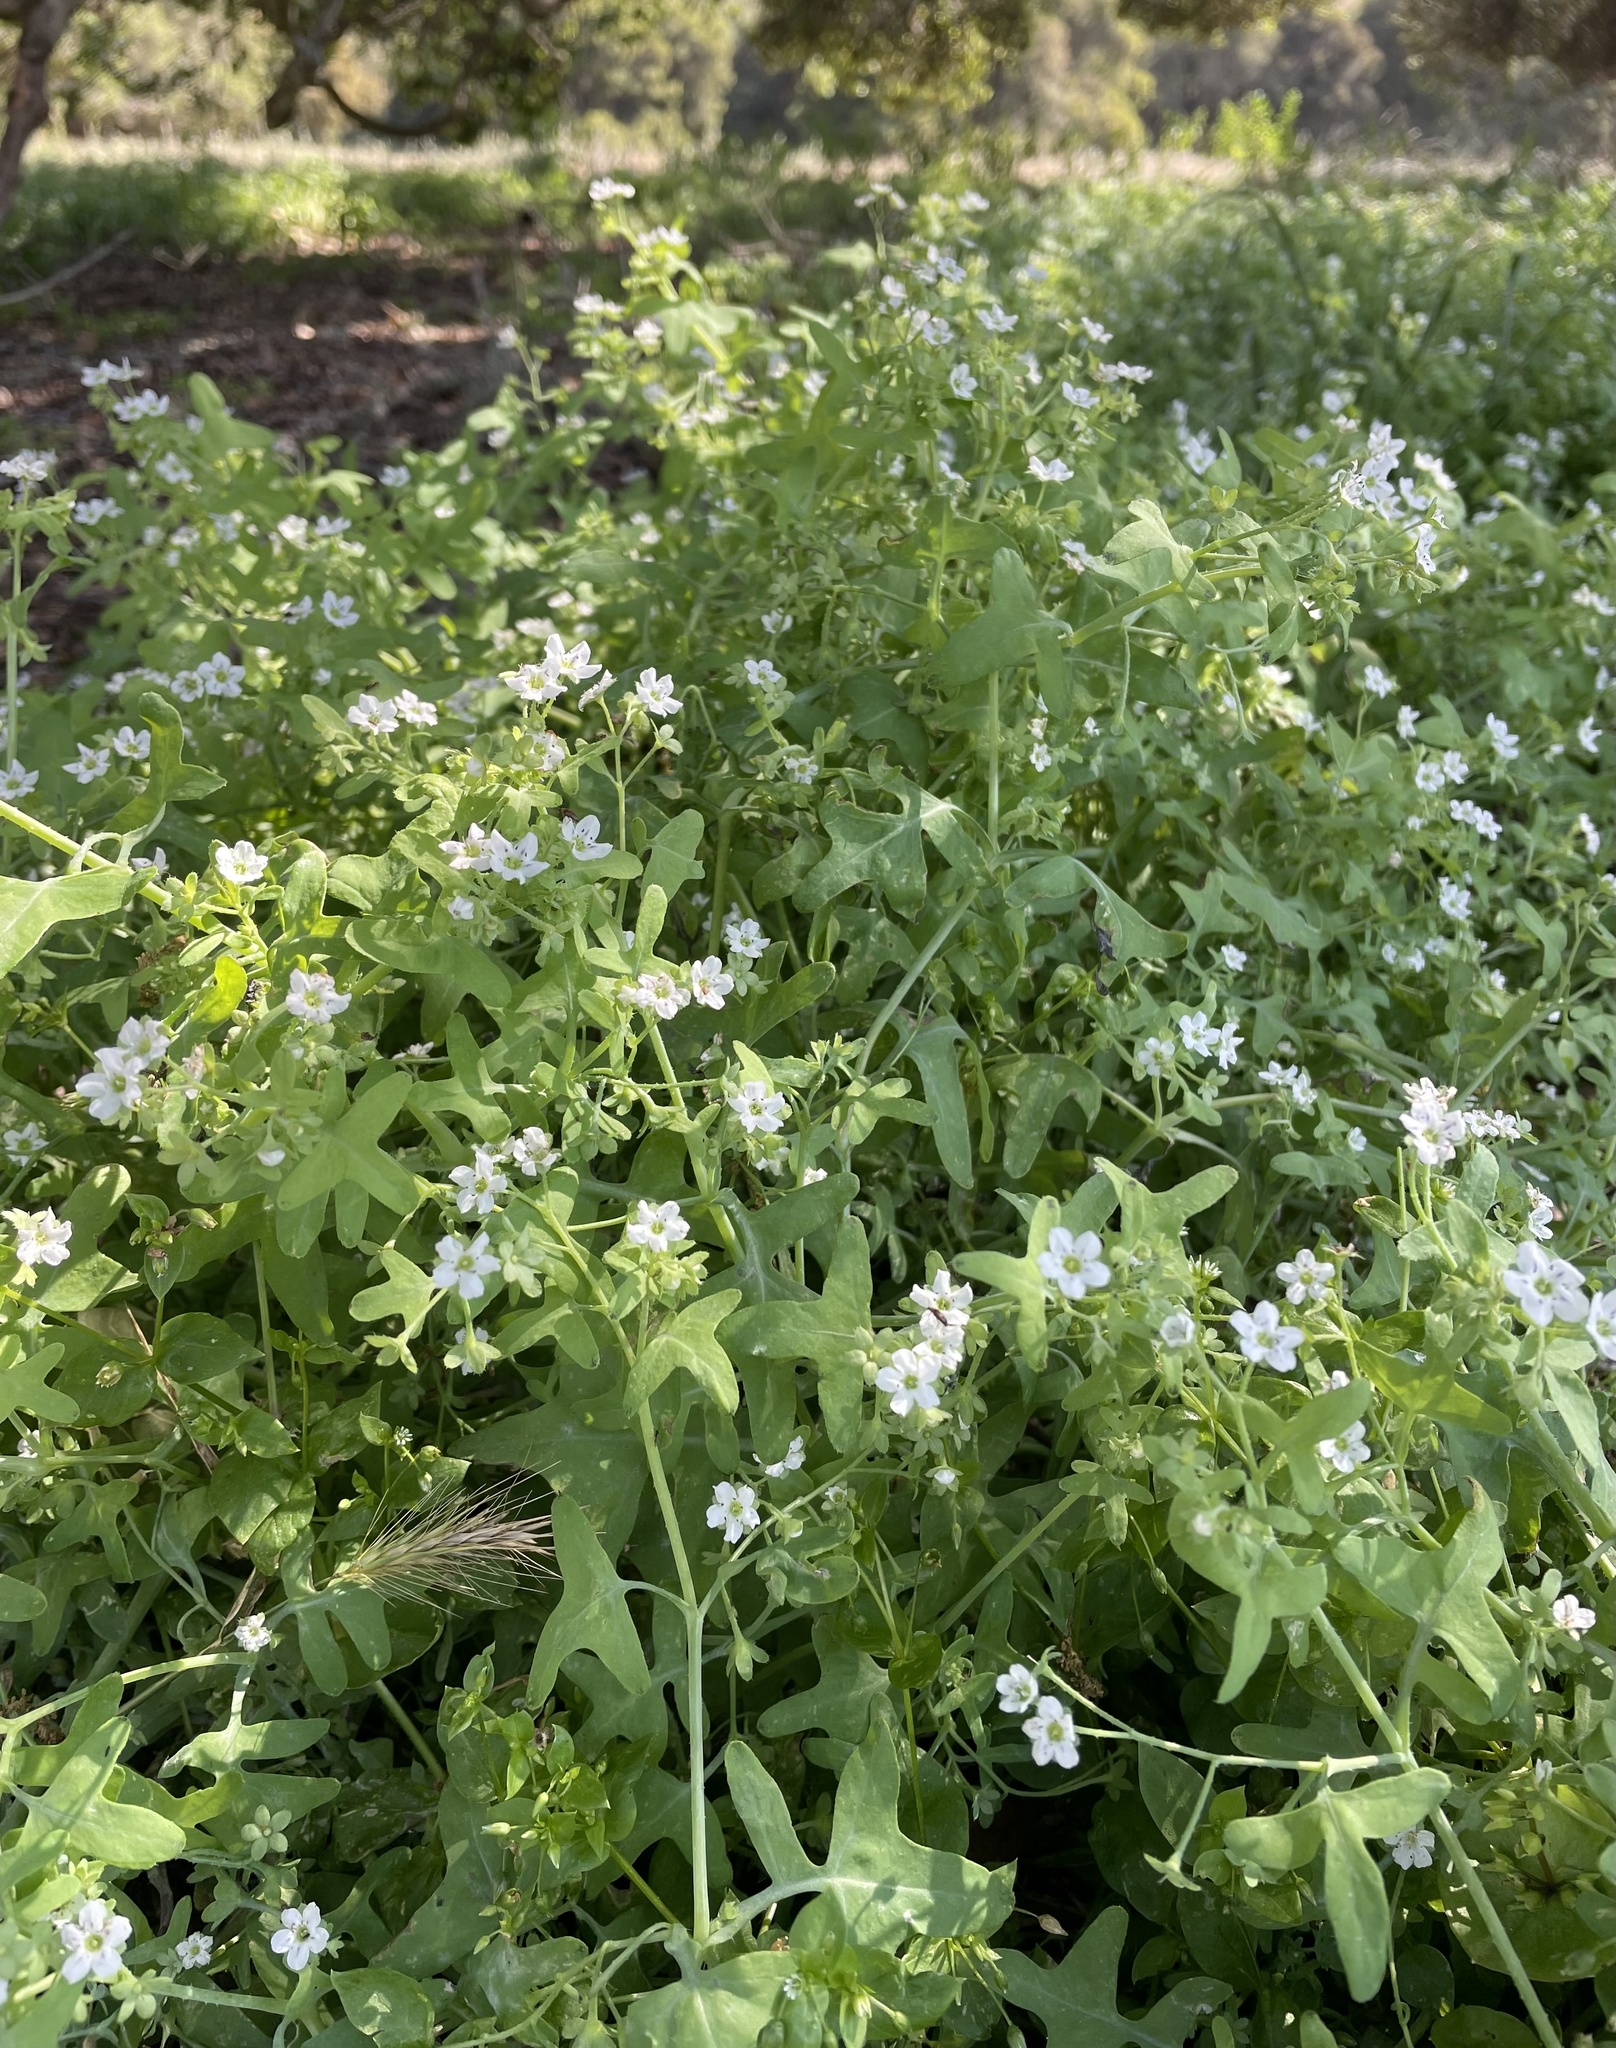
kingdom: Plantae
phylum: Tracheophyta
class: Magnoliopsida
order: Boraginales
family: Hydrophyllaceae
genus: Pholistoma
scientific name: Pholistoma membranaceum
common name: White fiesta-flower
